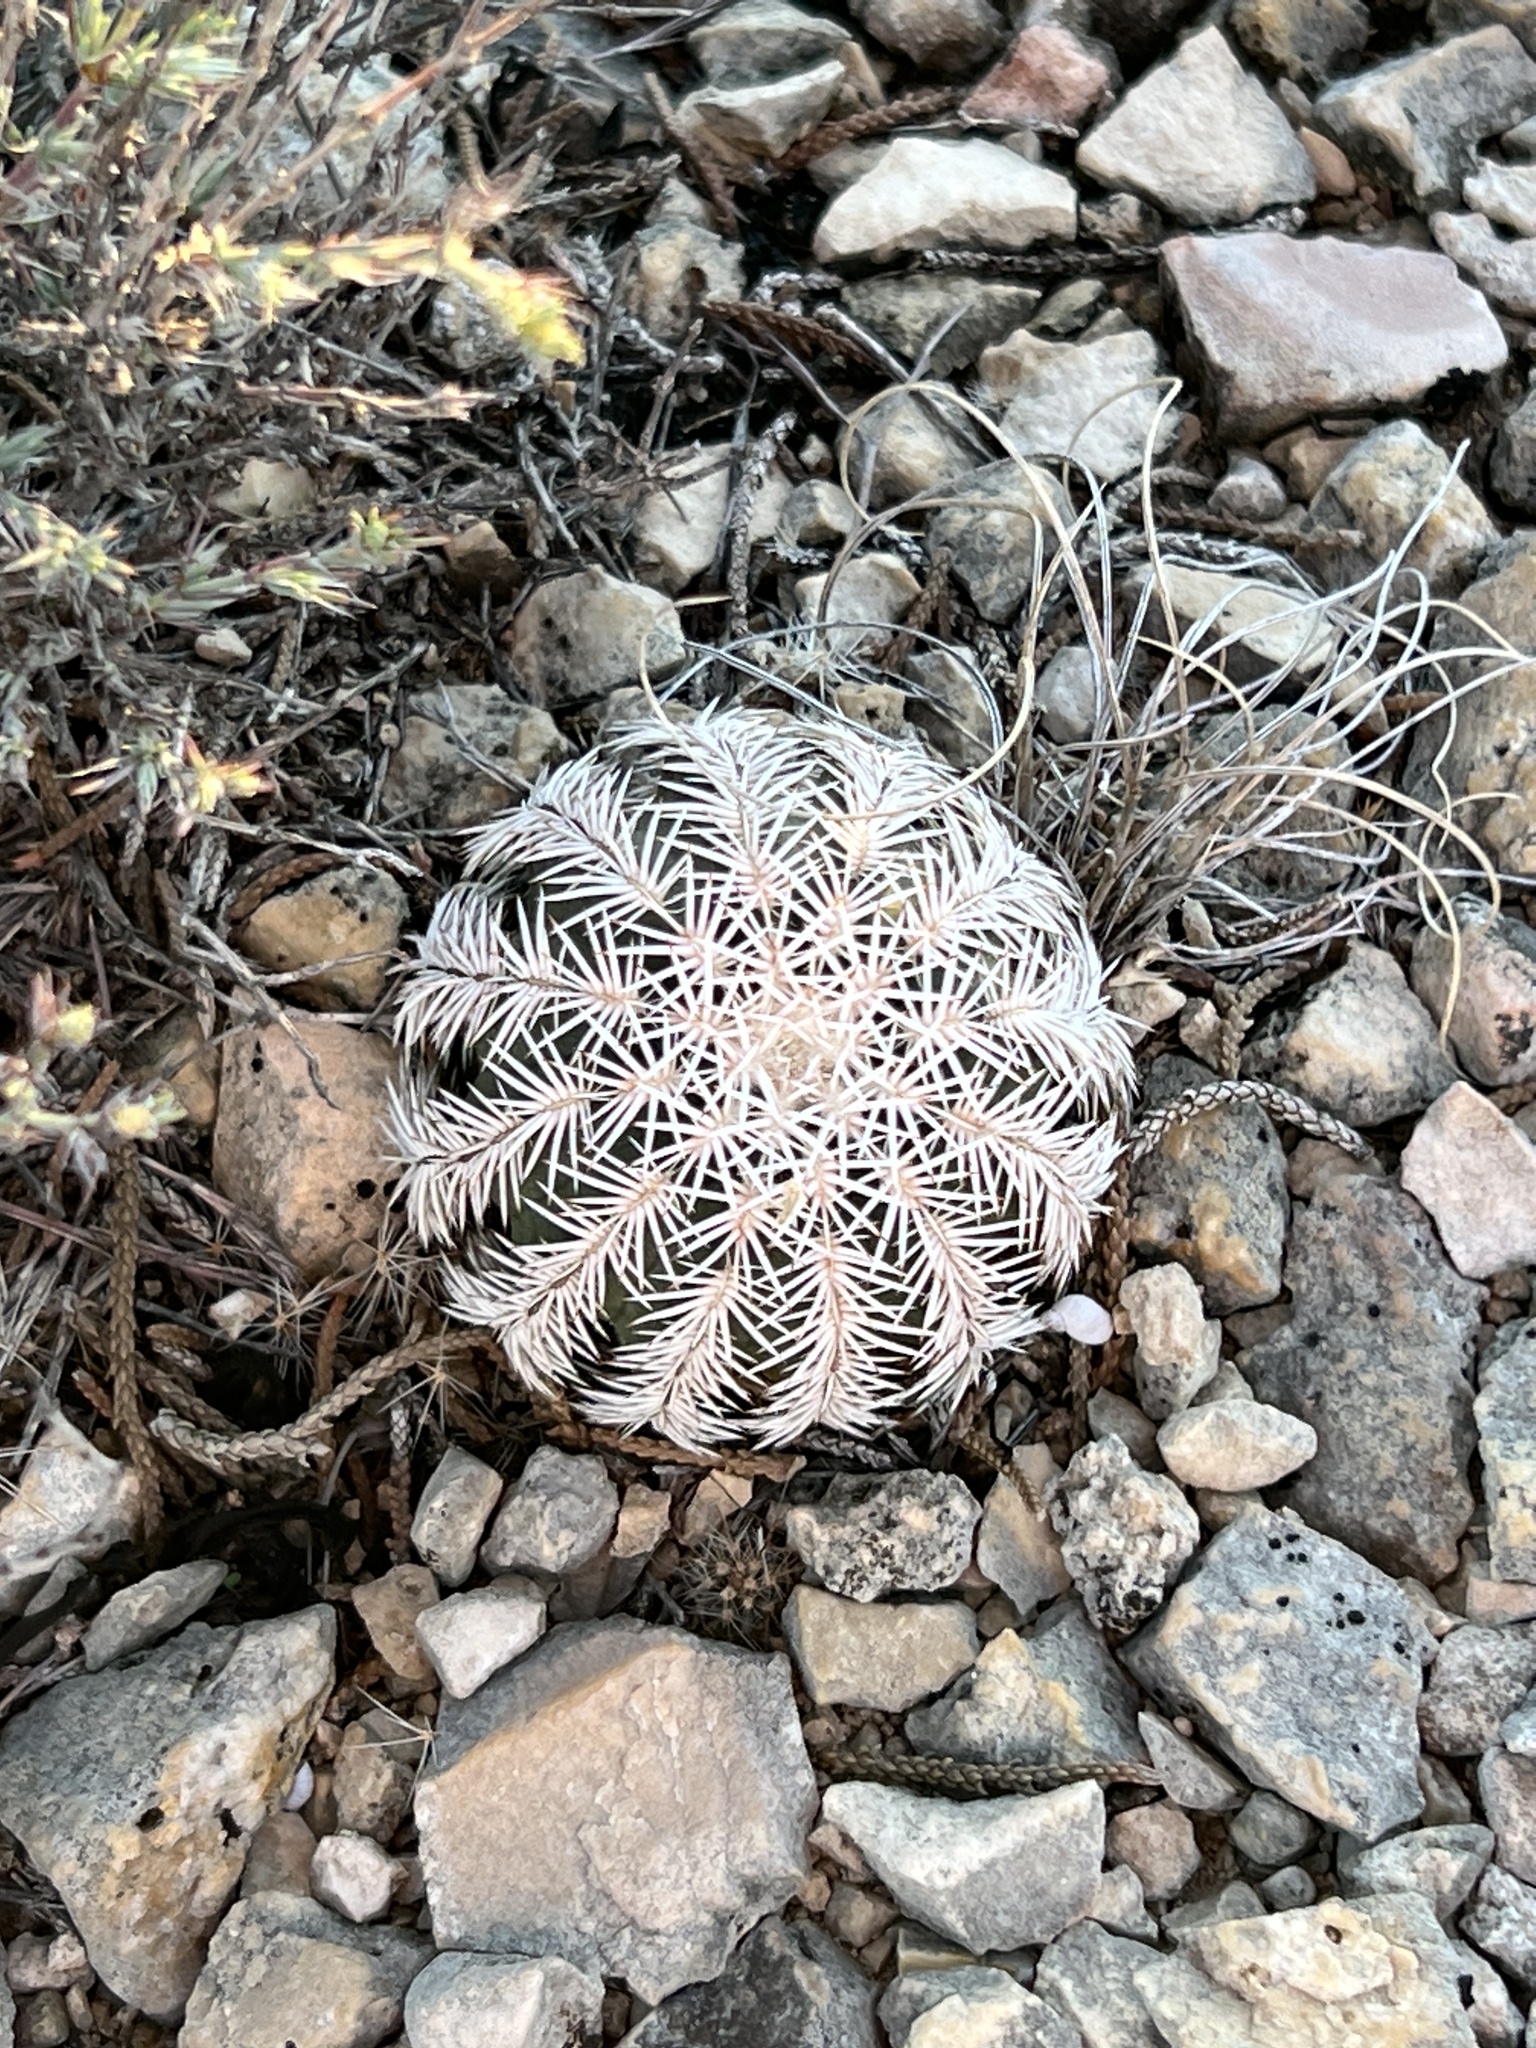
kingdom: Plantae
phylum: Tracheophyta
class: Magnoliopsida
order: Caryophyllales
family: Cactaceae
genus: Echinocereus
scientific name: Echinocereus reichenbachii
